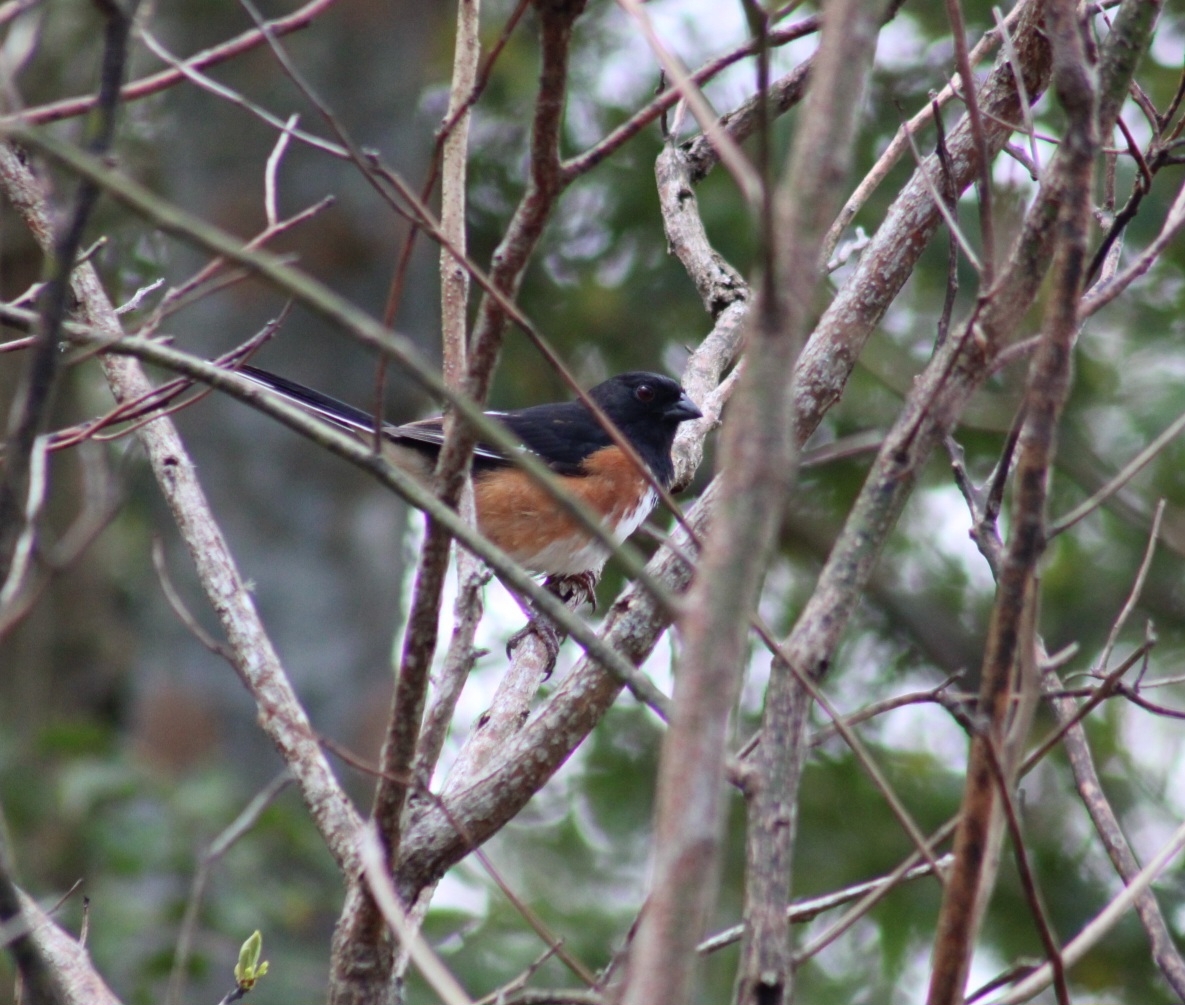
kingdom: Animalia
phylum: Chordata
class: Aves
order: Passeriformes
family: Passerellidae
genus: Pipilo
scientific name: Pipilo erythrophthalmus
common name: Eastern towhee
